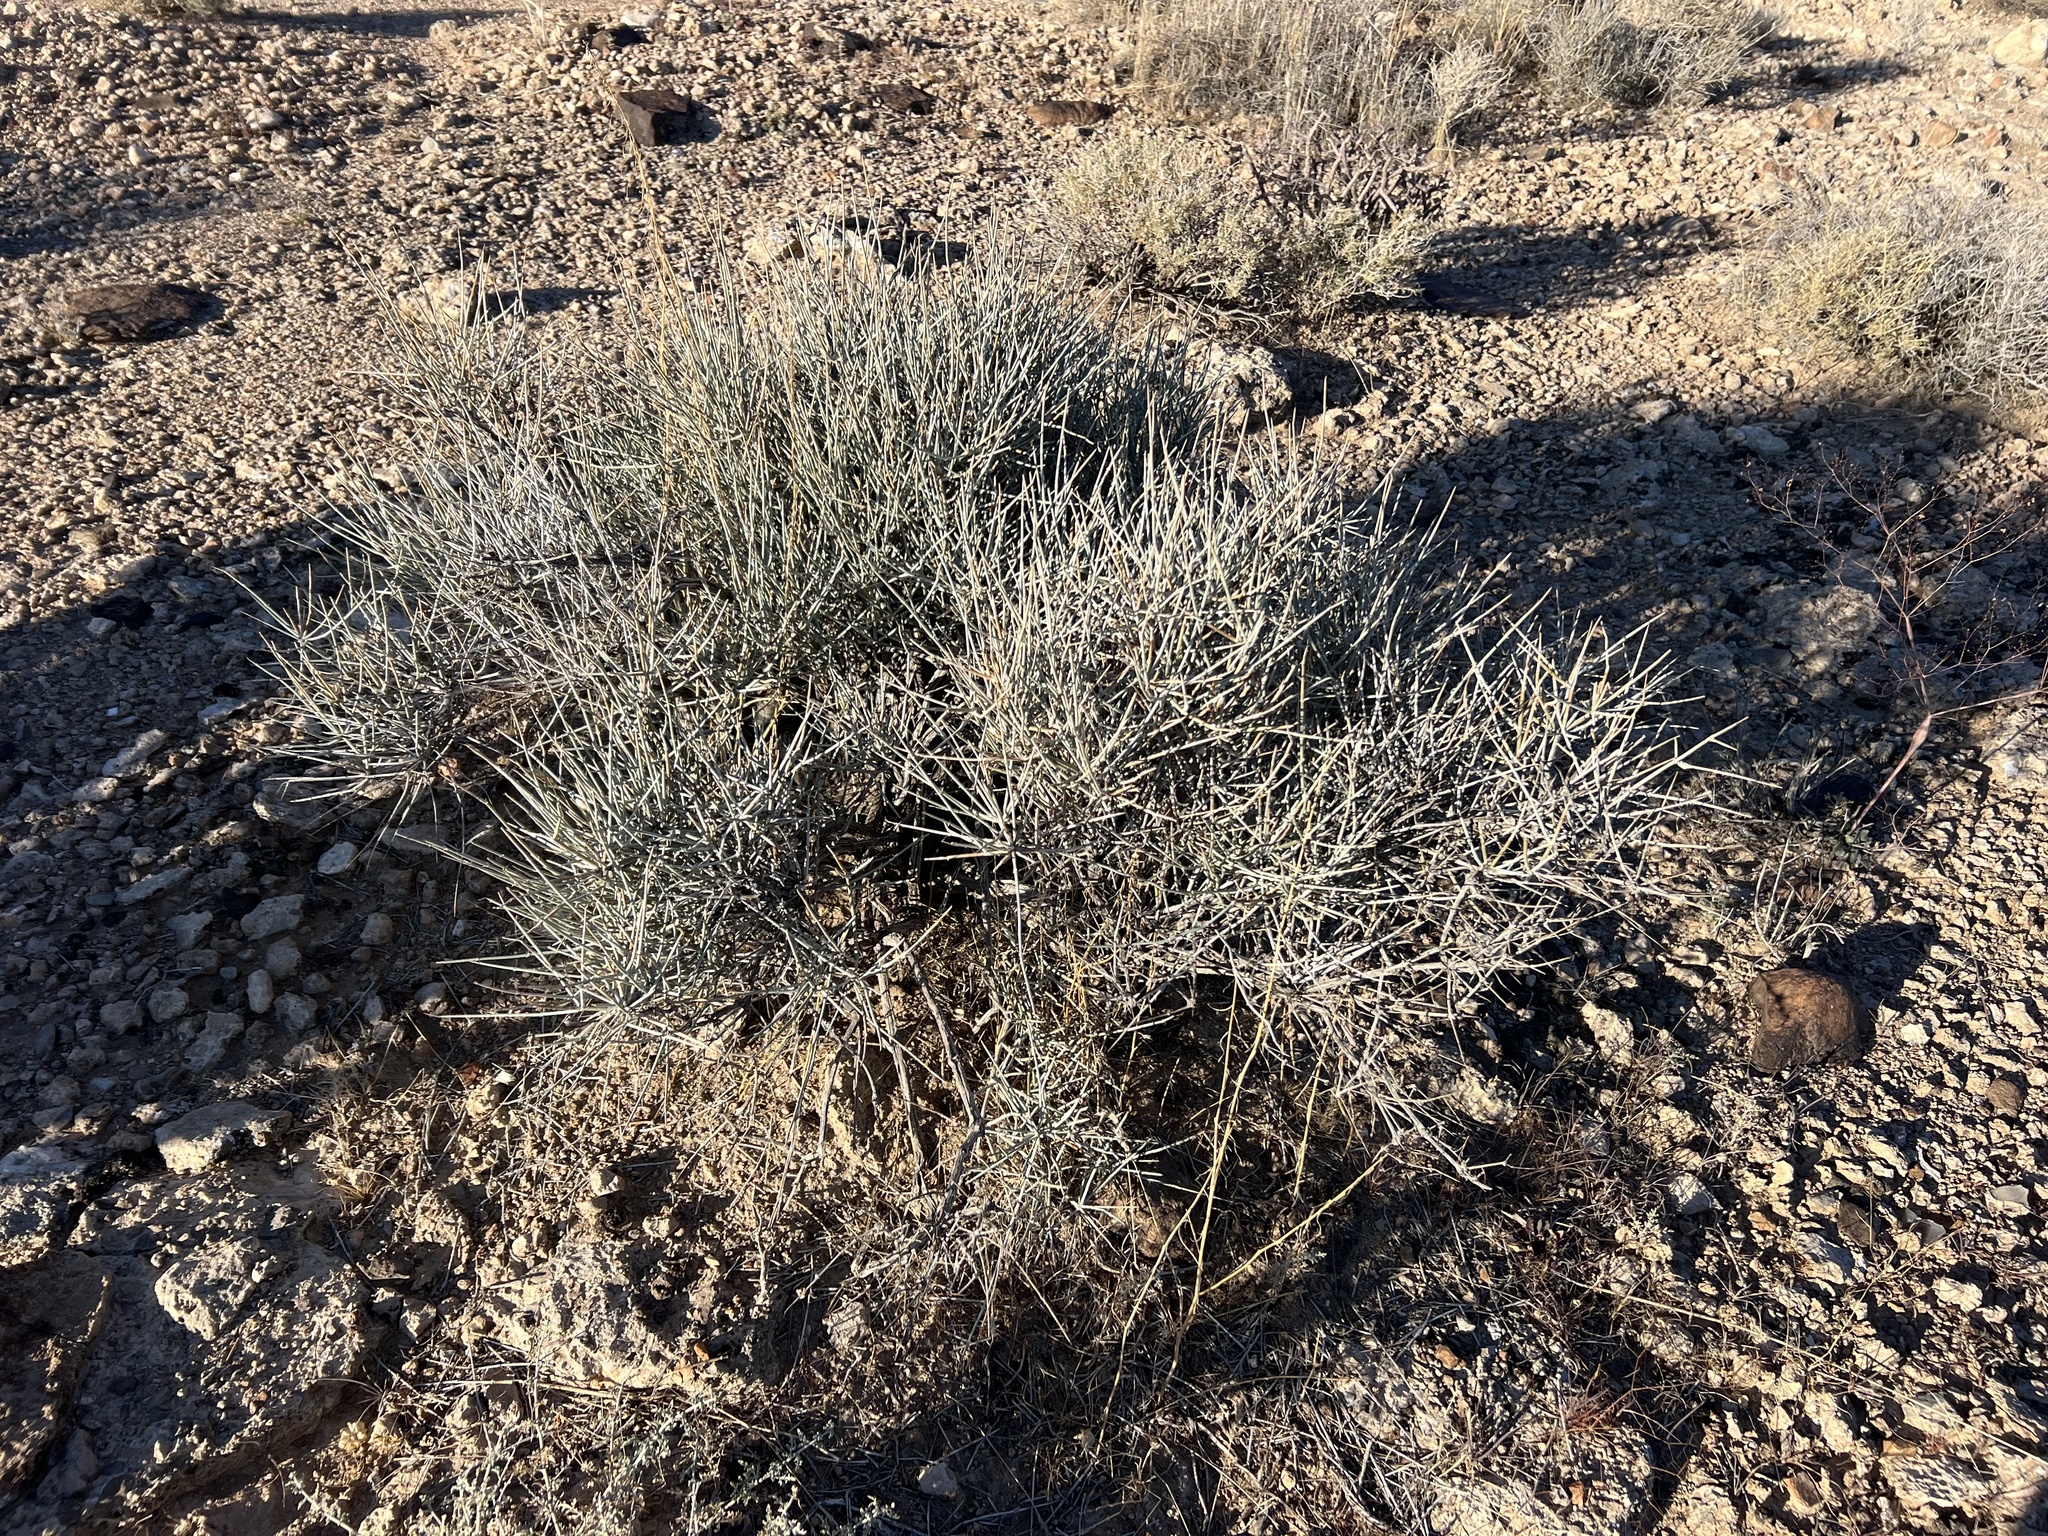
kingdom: Plantae
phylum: Tracheophyta
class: Gnetopsida
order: Ephedrales
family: Ephedraceae
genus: Ephedra
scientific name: Ephedra nevadensis
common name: Gray ephedra
